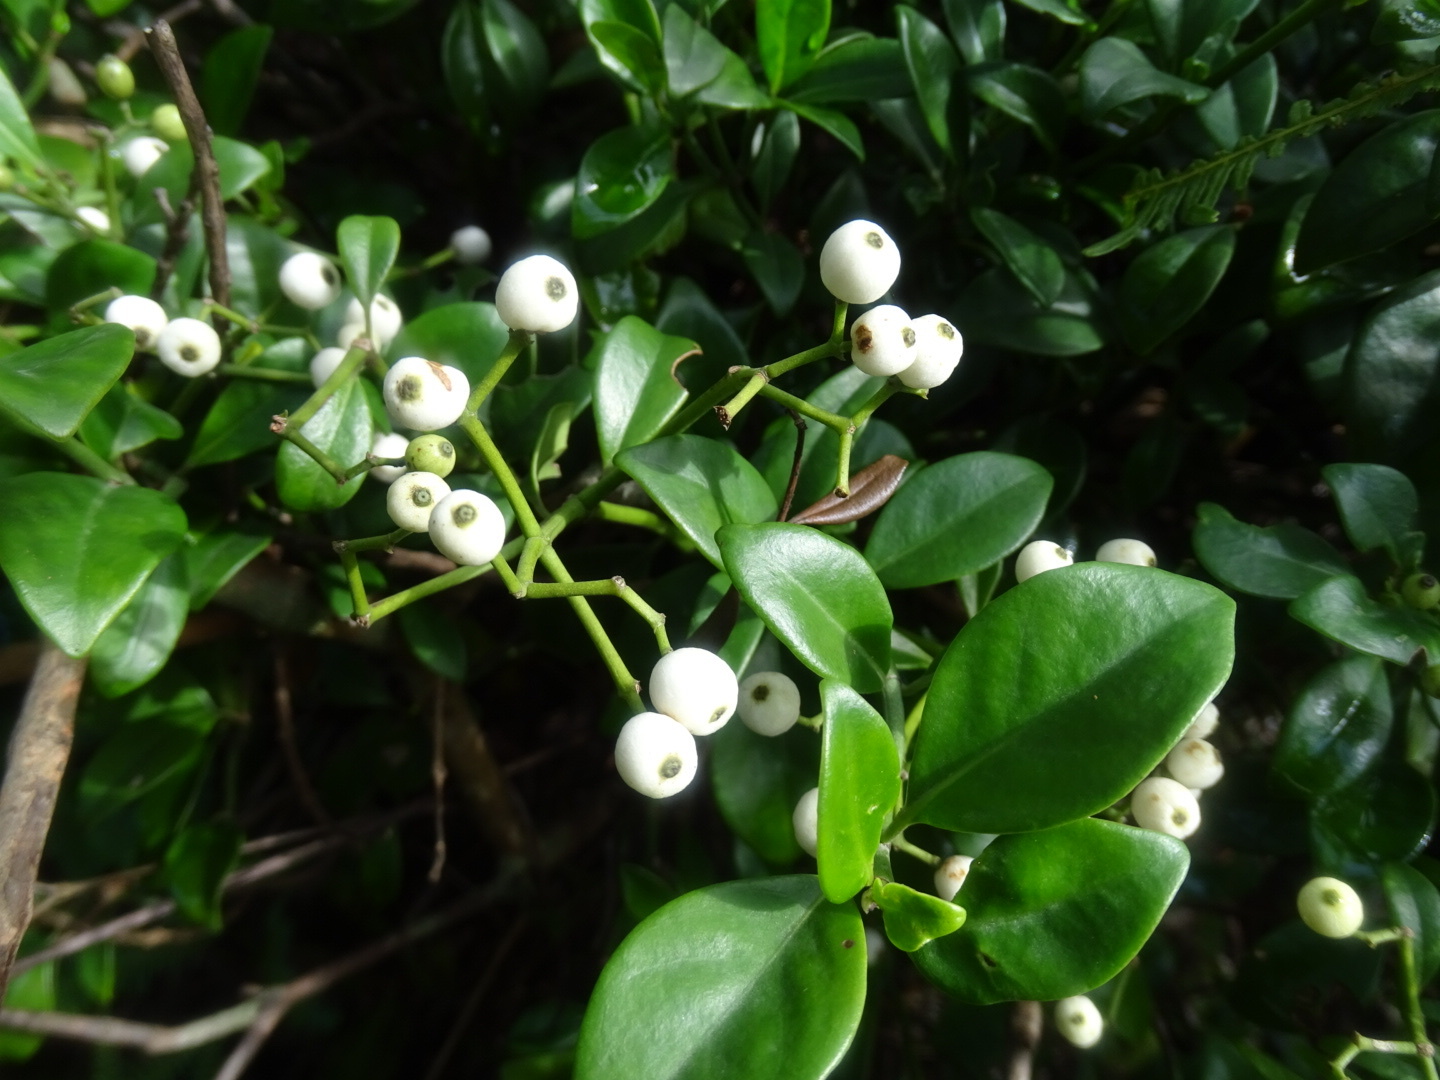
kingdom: Plantae
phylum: Tracheophyta
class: Magnoliopsida
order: Gentianales
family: Rubiaceae
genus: Psychotria
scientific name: Psychotria serpens
